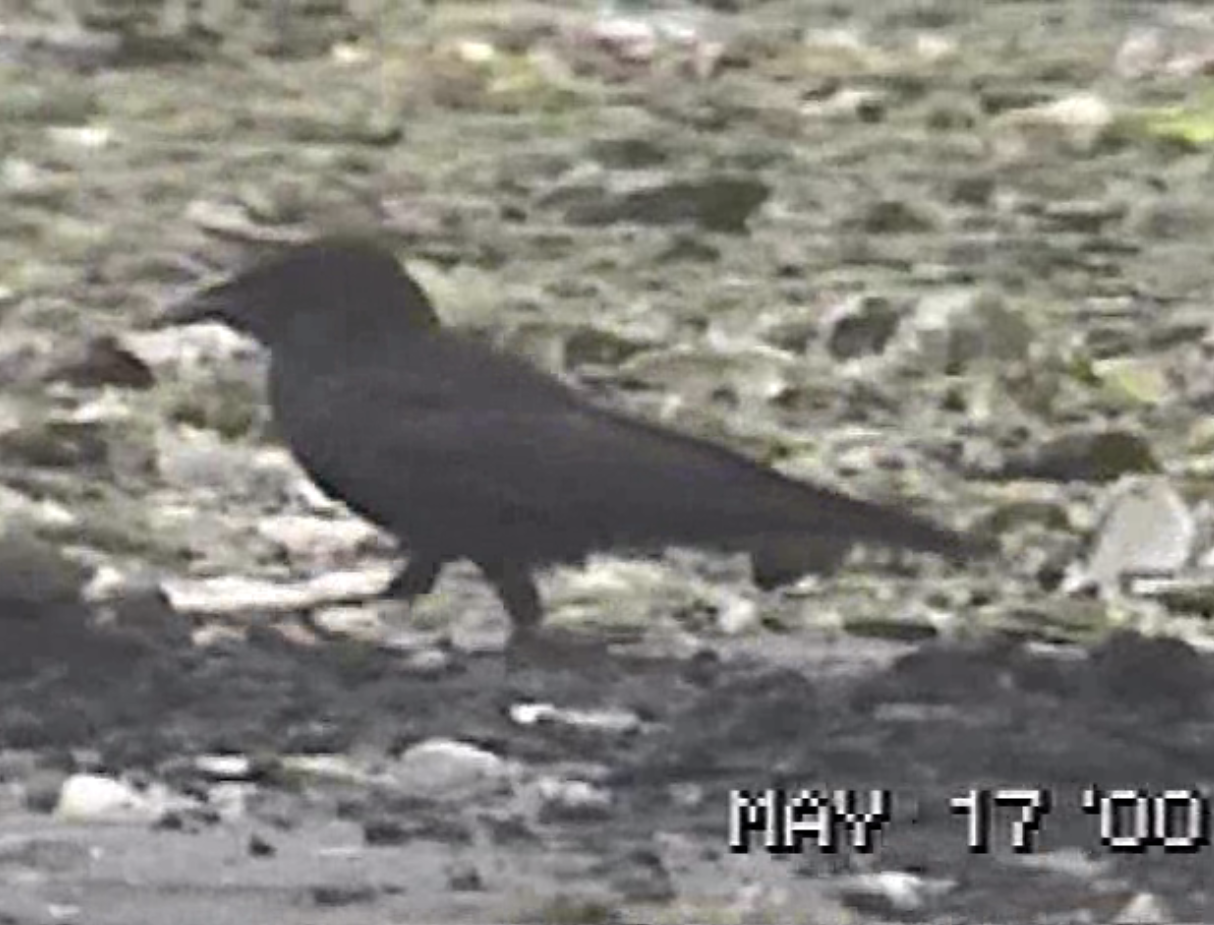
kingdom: Animalia
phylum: Chordata
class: Aves
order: Passeriformes
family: Corvidae
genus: Corvus
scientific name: Corvus brachyrhynchos
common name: American crow
